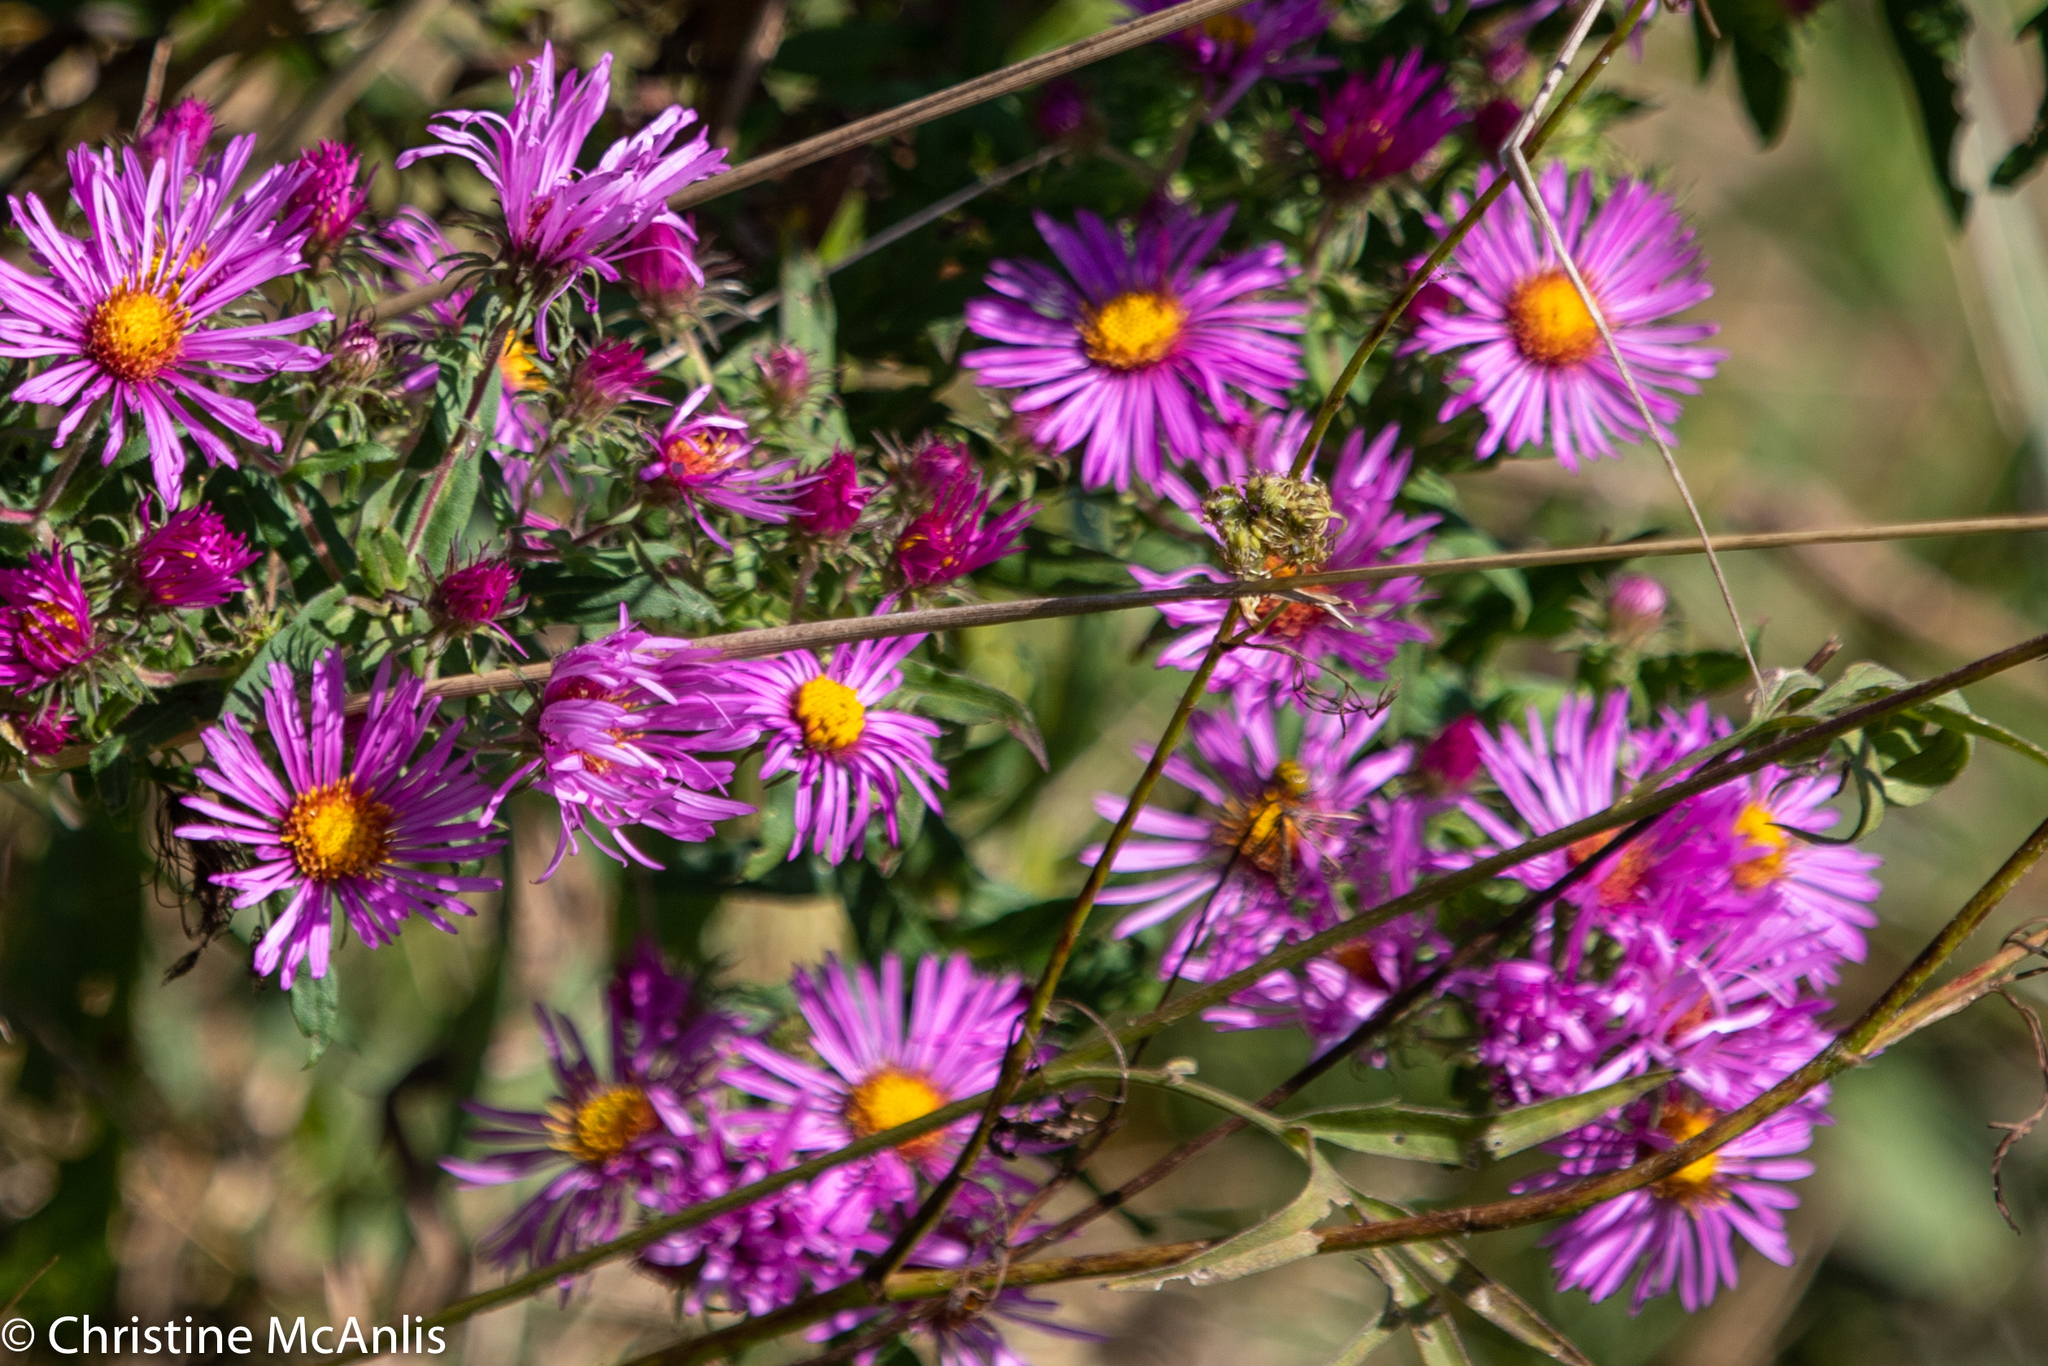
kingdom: Plantae
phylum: Tracheophyta
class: Magnoliopsida
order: Asterales
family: Asteraceae
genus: Symphyotrichum
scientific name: Symphyotrichum novae-angliae
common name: Michaelmas daisy
